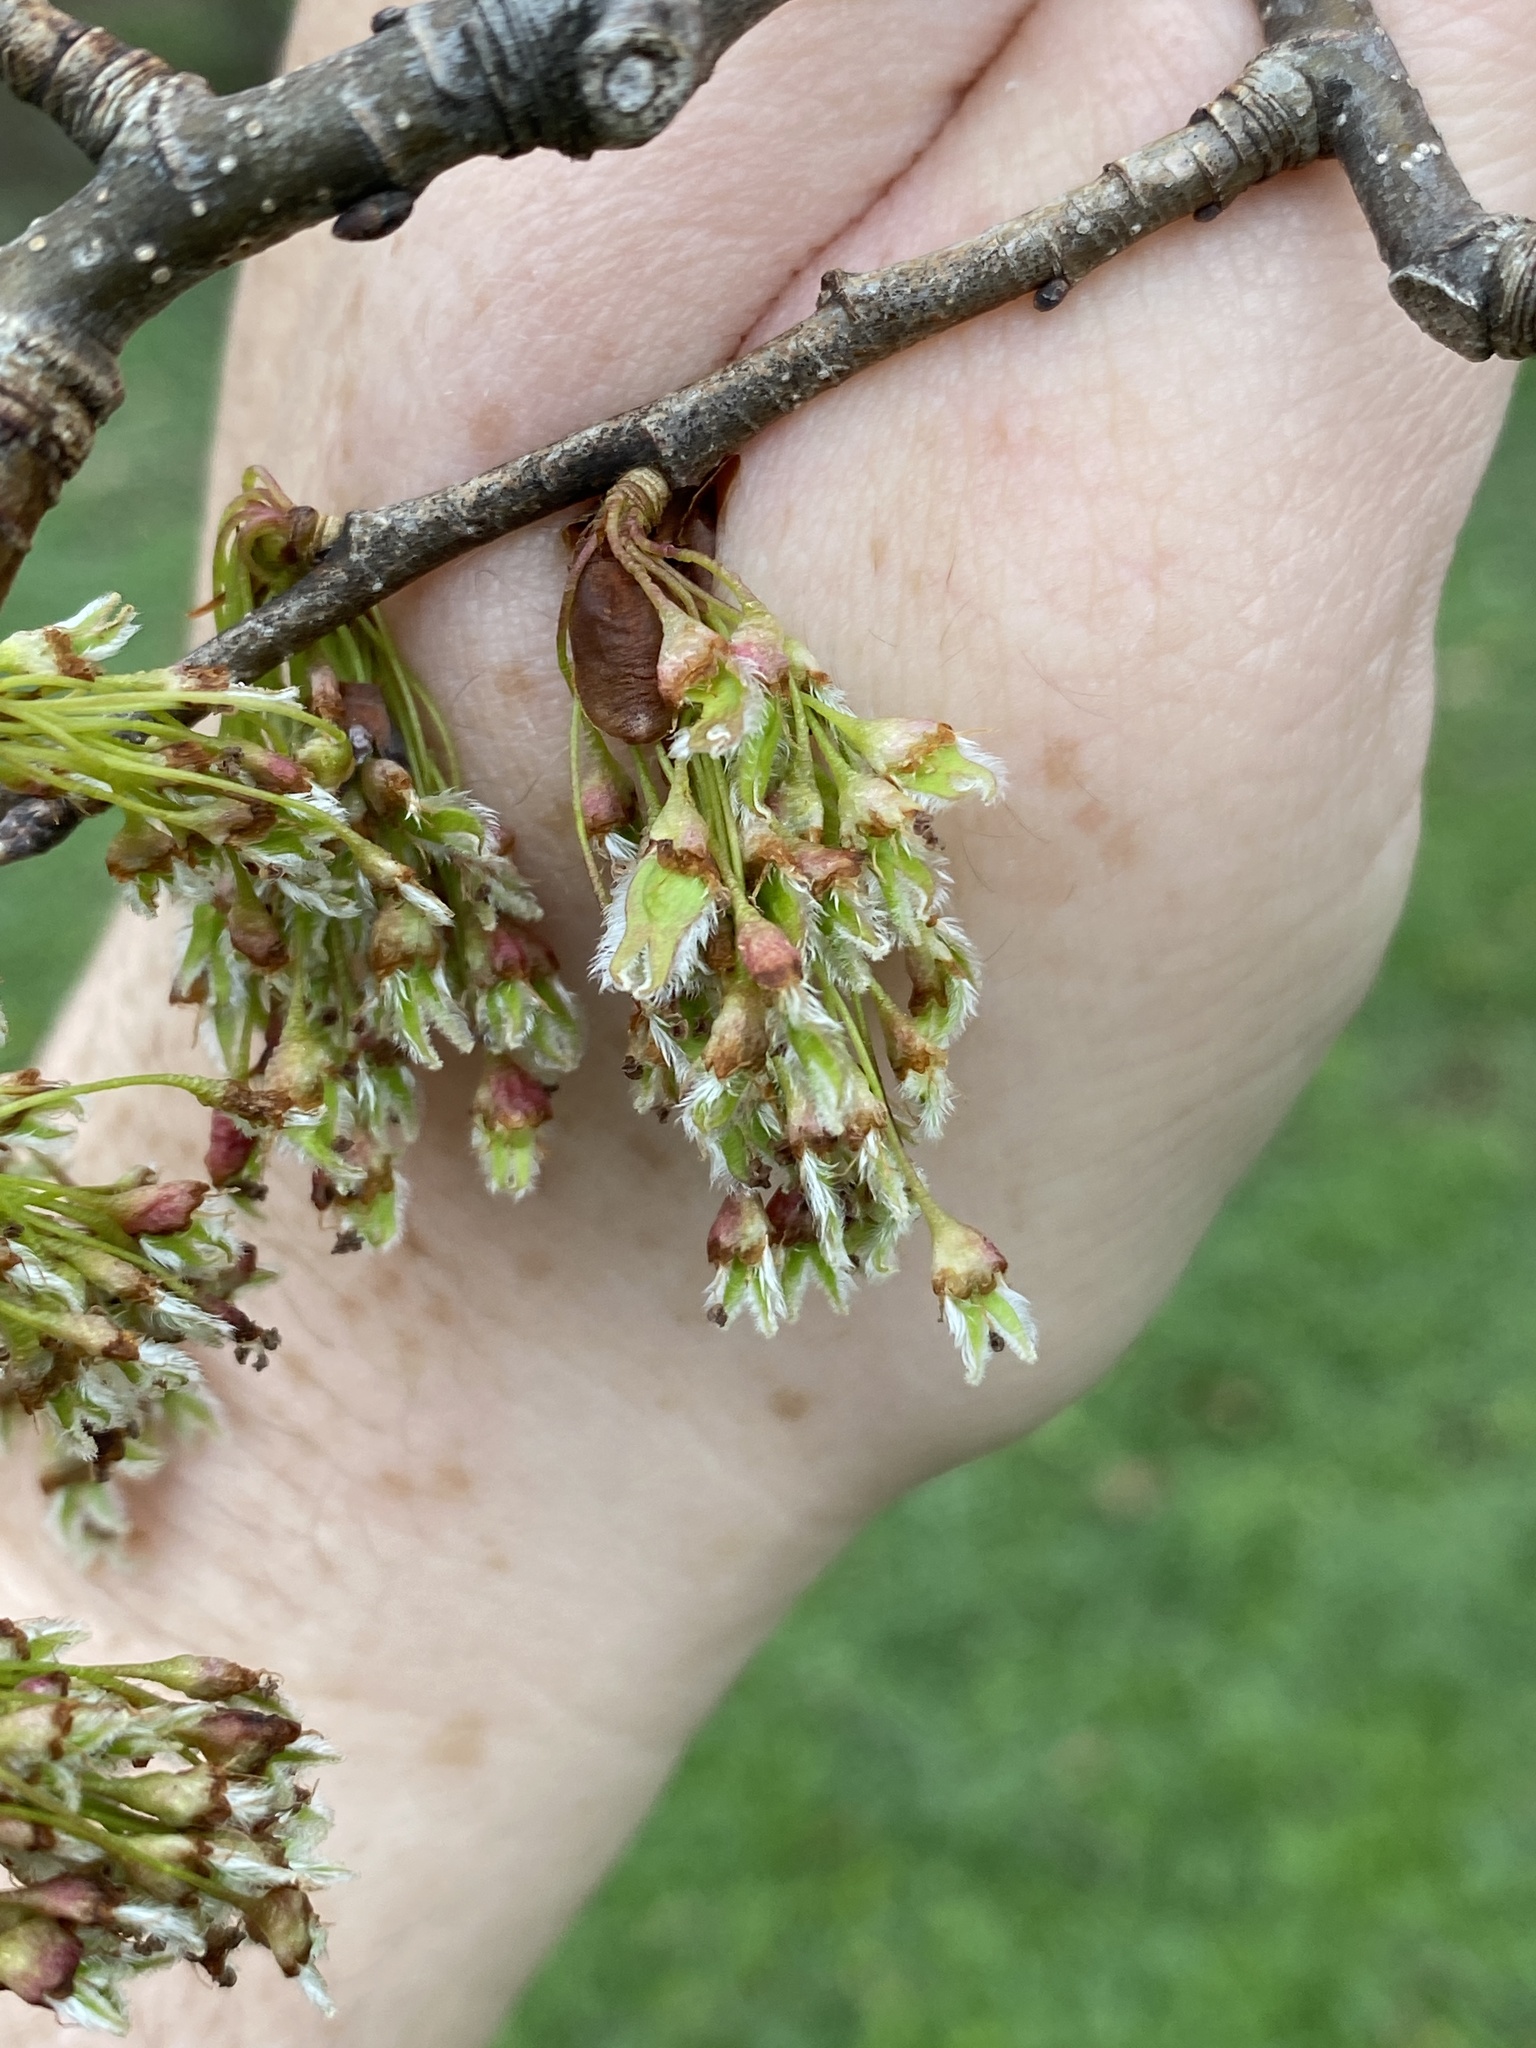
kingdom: Plantae
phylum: Tracheophyta
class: Magnoliopsida
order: Rosales
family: Ulmaceae
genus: Ulmus
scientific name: Ulmus americana
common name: American elm
